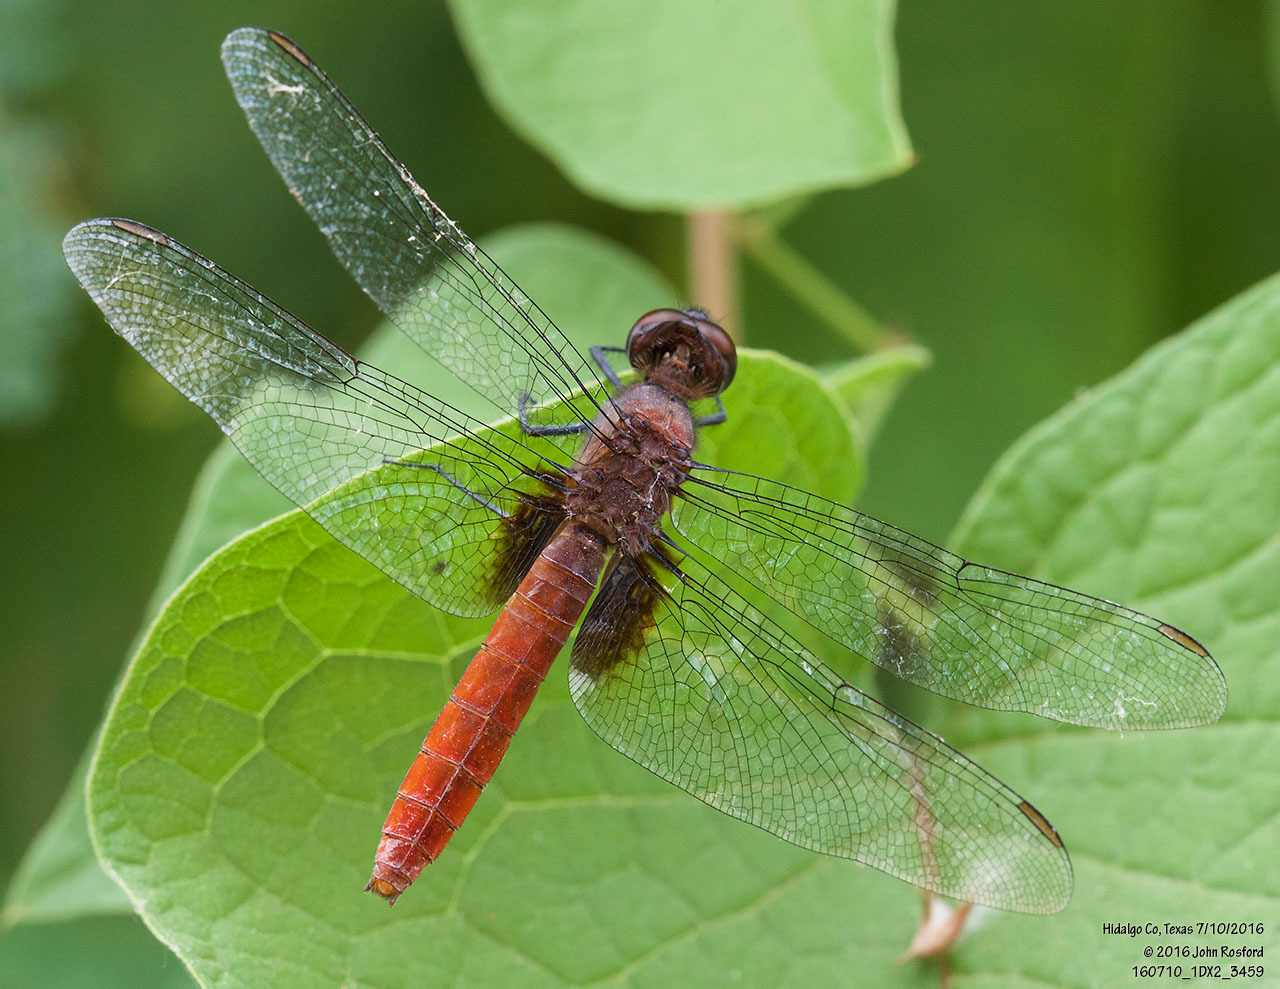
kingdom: Animalia
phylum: Arthropoda
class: Insecta
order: Odonata
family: Libellulidae
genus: Planiplax
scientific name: Planiplax sanguiniventris
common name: Mexican scarlet-tail
